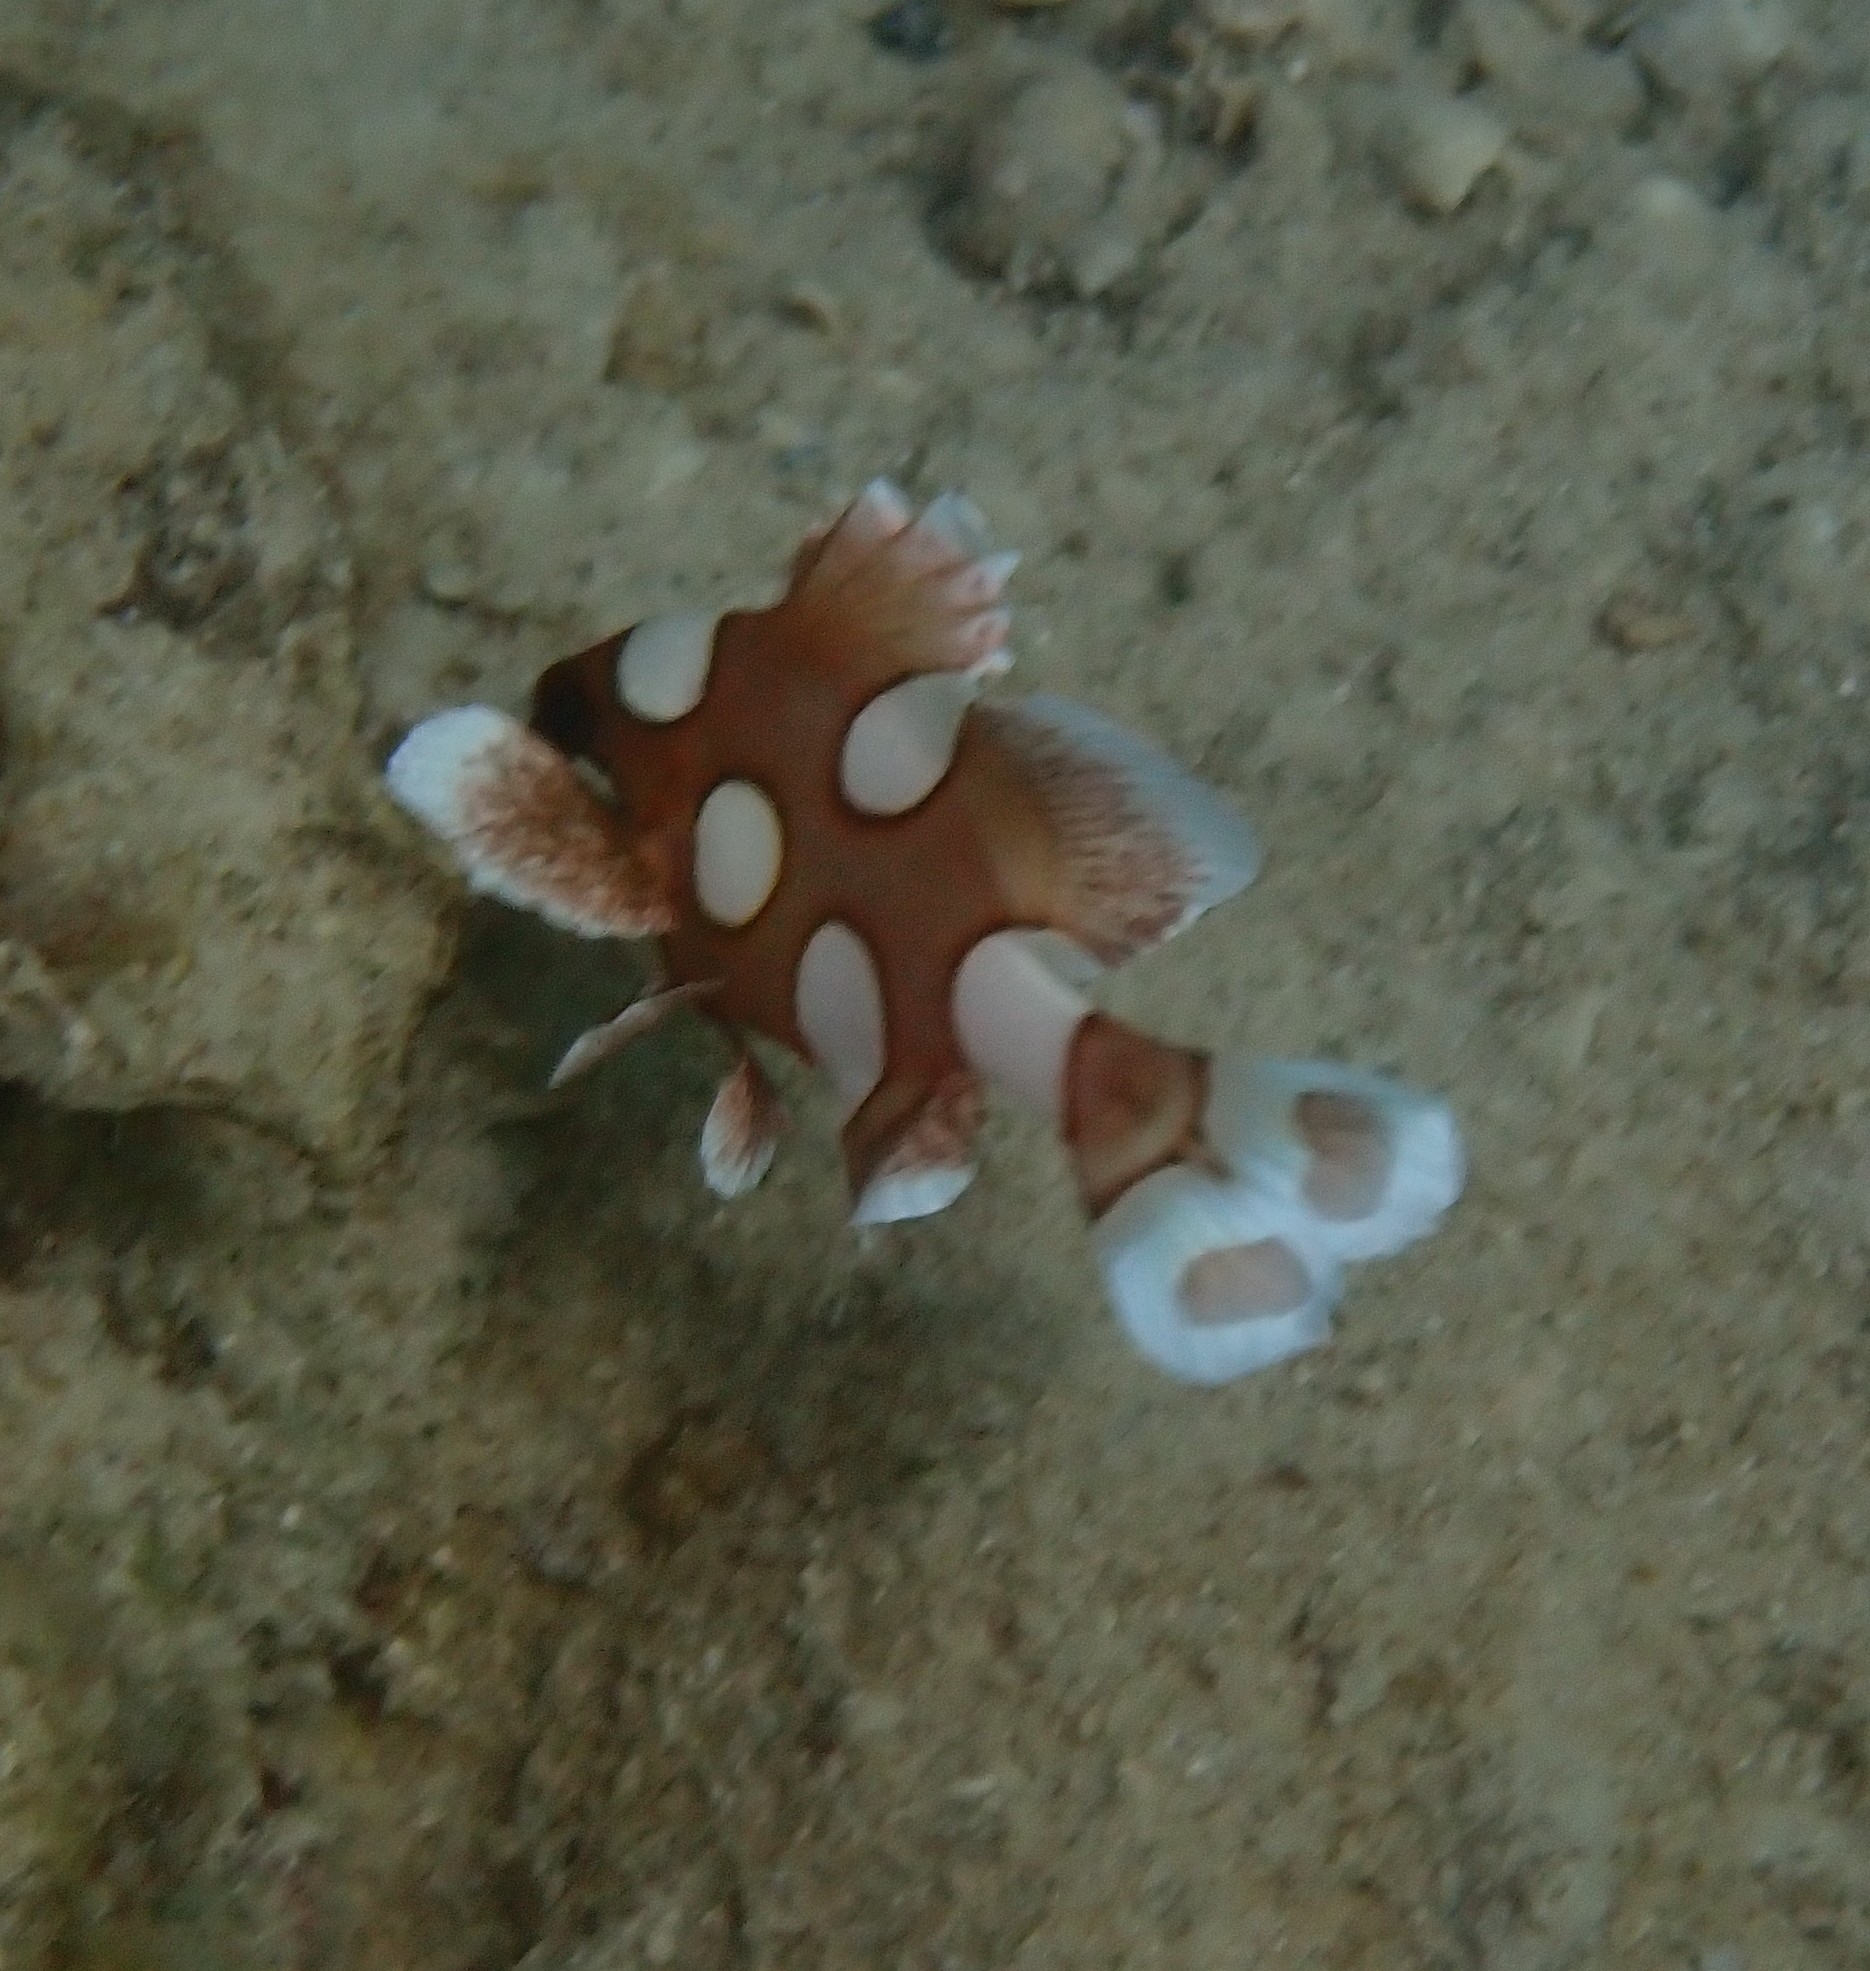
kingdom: Animalia
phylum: Chordata
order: Perciformes
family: Haemulidae
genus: Plectorhinchus
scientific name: Plectorhinchus chaetodonoides
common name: Harlequin sweetlips
